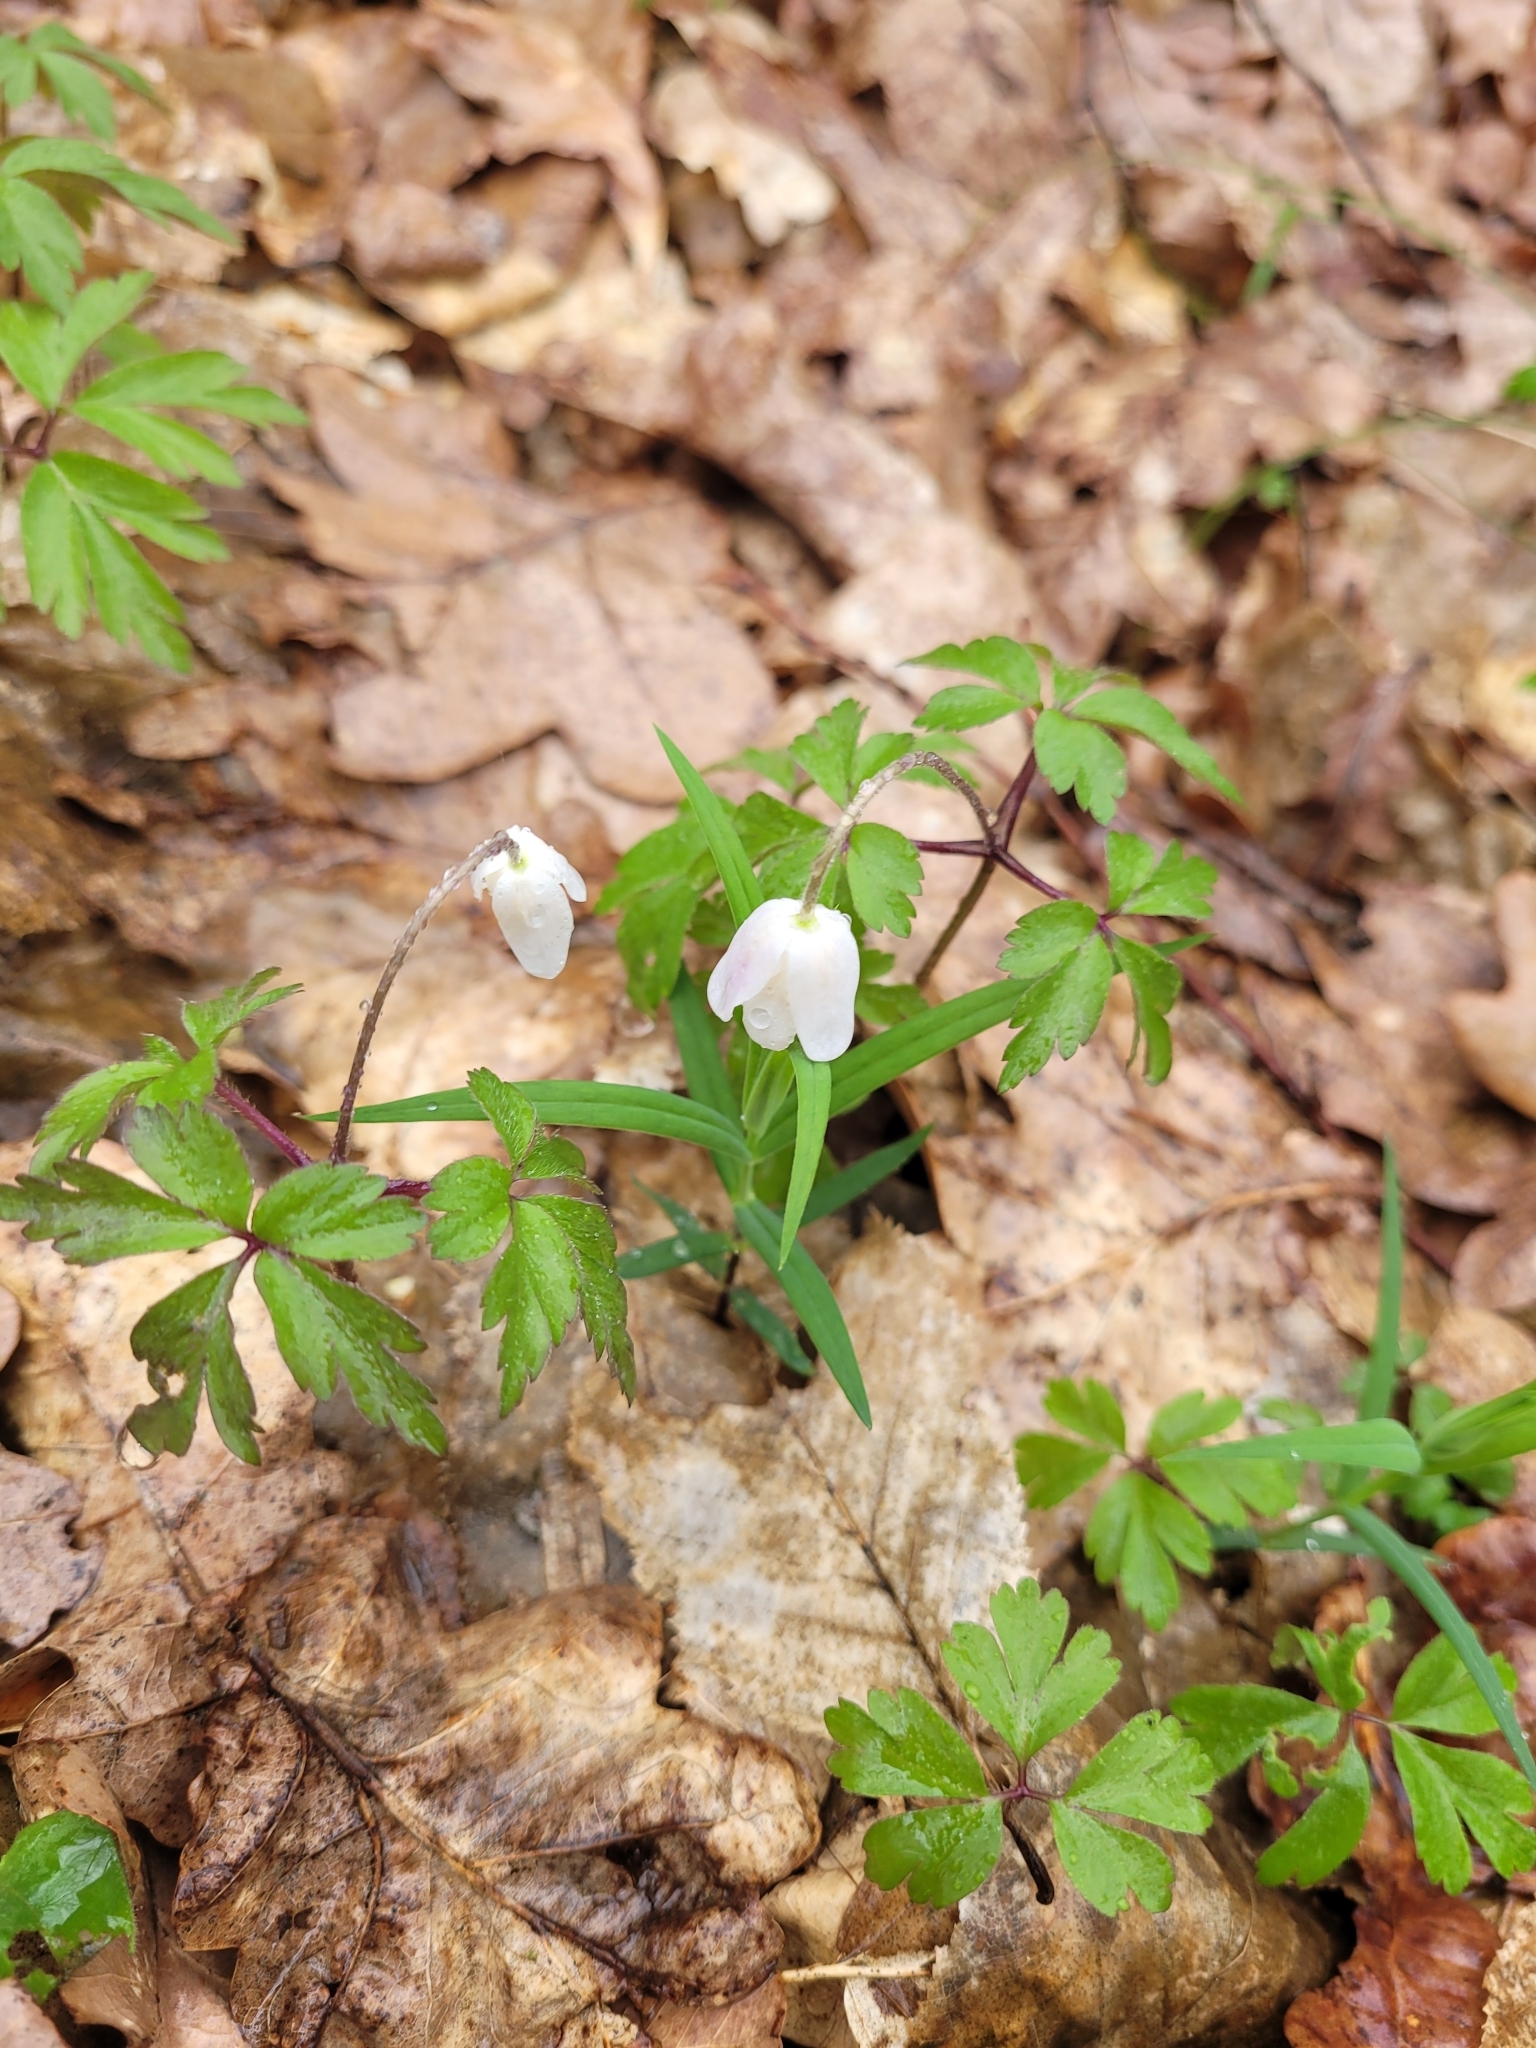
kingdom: Plantae
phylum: Tracheophyta
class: Magnoliopsida
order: Ranunculales
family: Ranunculaceae
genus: Anemone
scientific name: Anemone nemorosa
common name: Wood anemone
